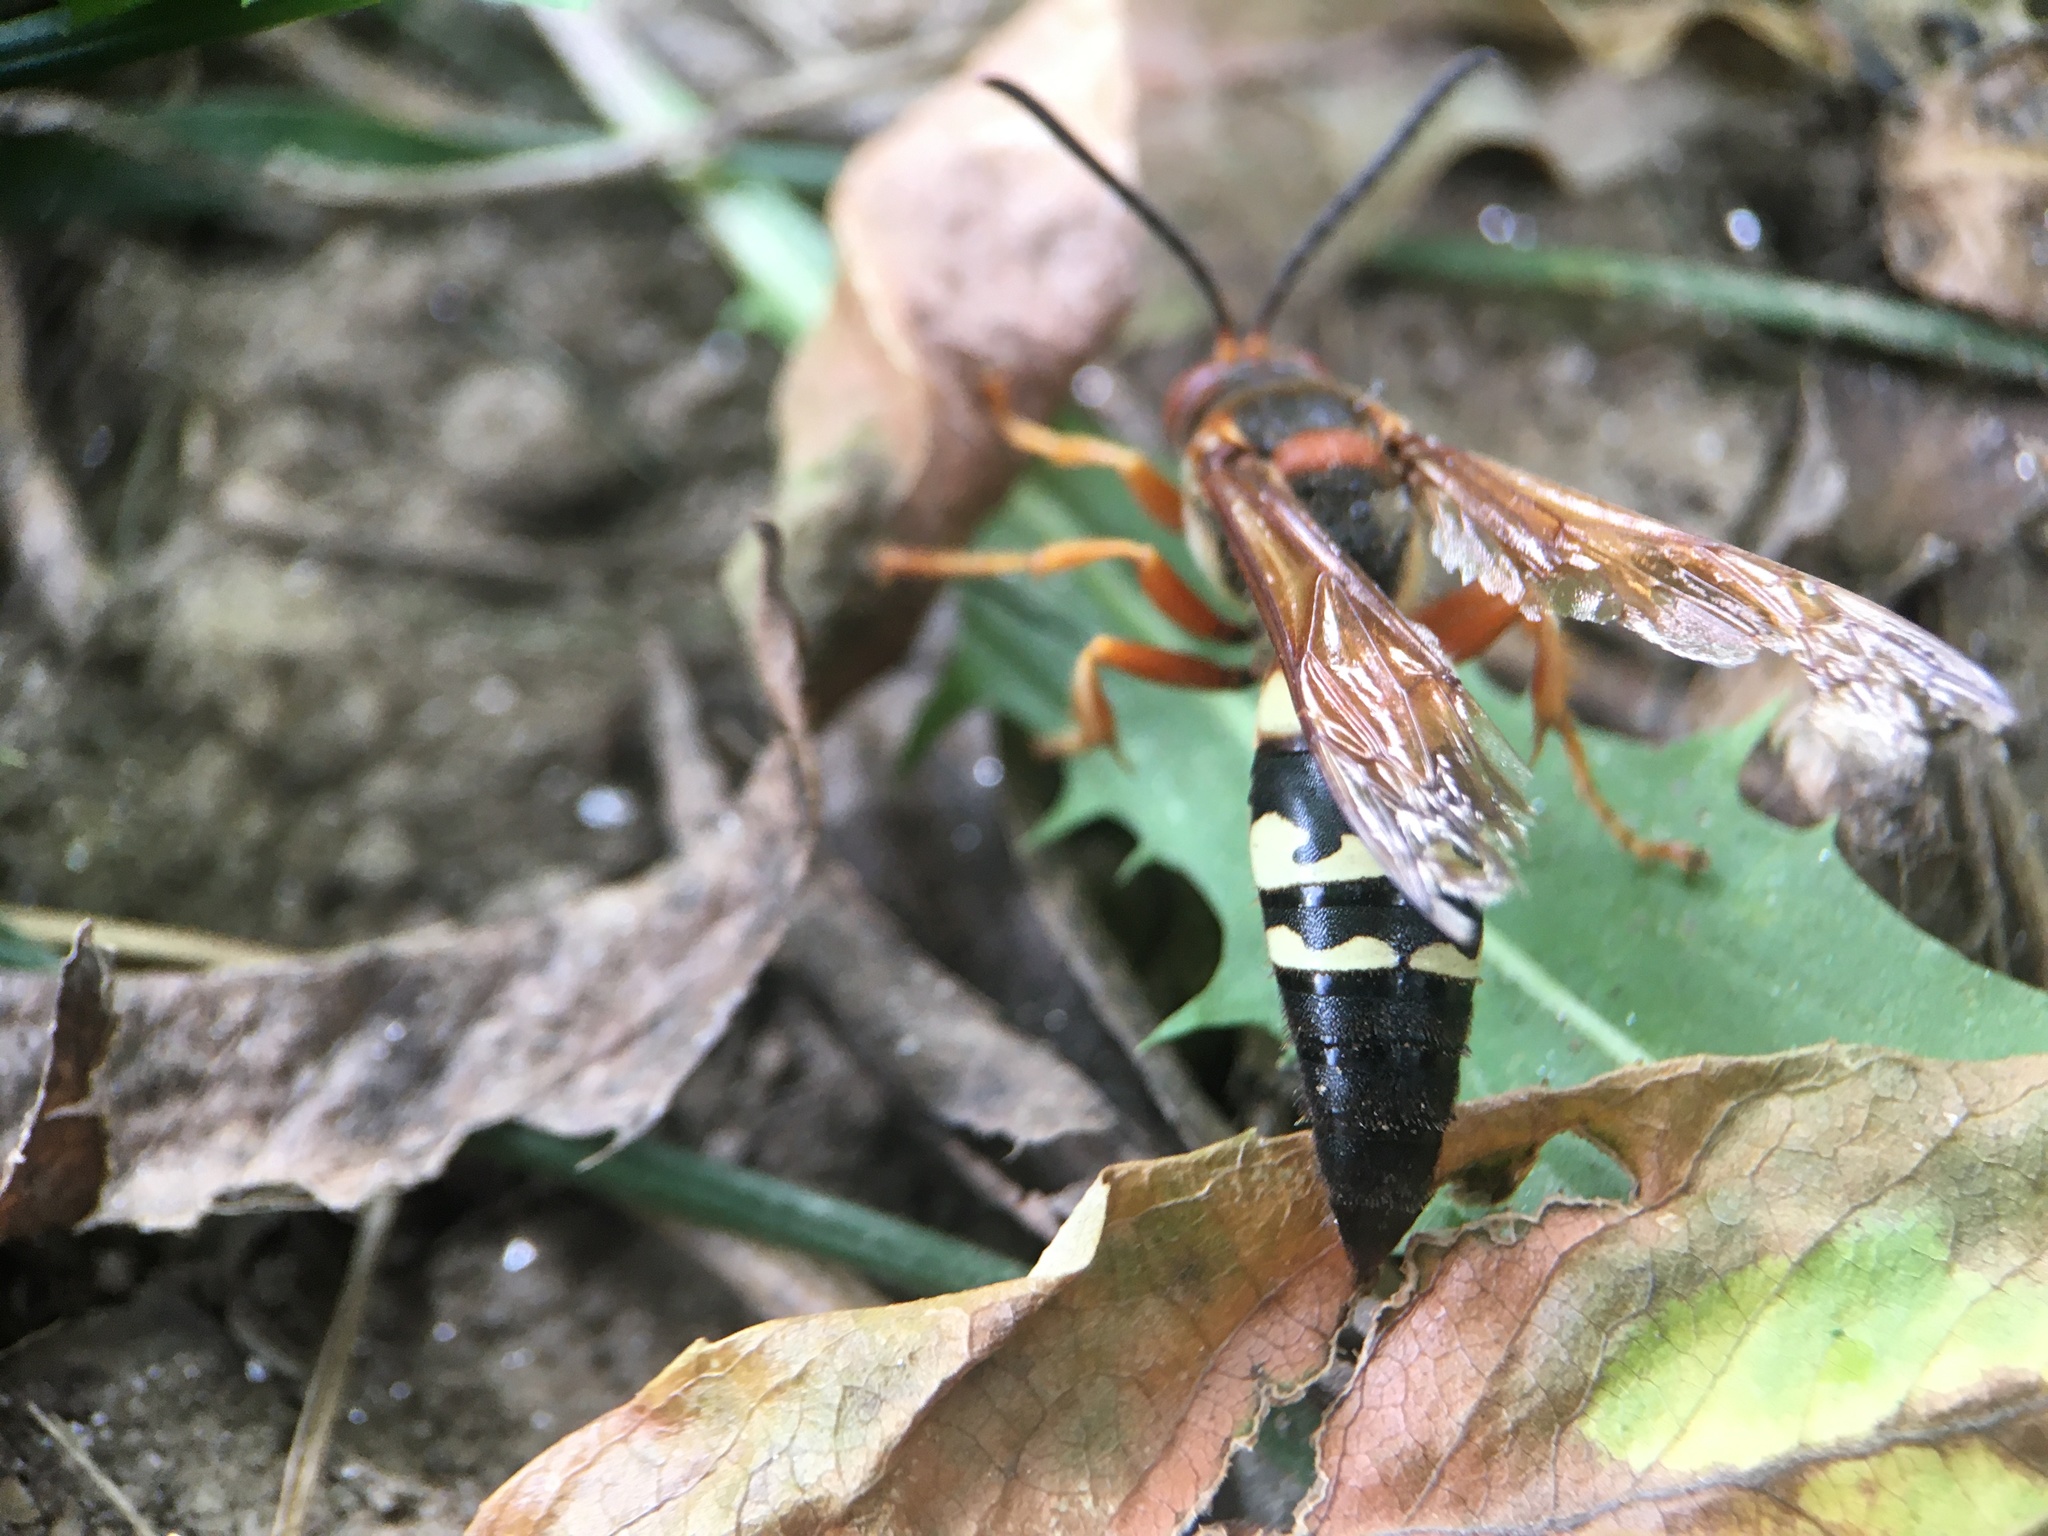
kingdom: Animalia
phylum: Arthropoda
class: Insecta
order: Hymenoptera
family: Crabronidae
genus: Sphecius
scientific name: Sphecius speciosus
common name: Cicada killer
